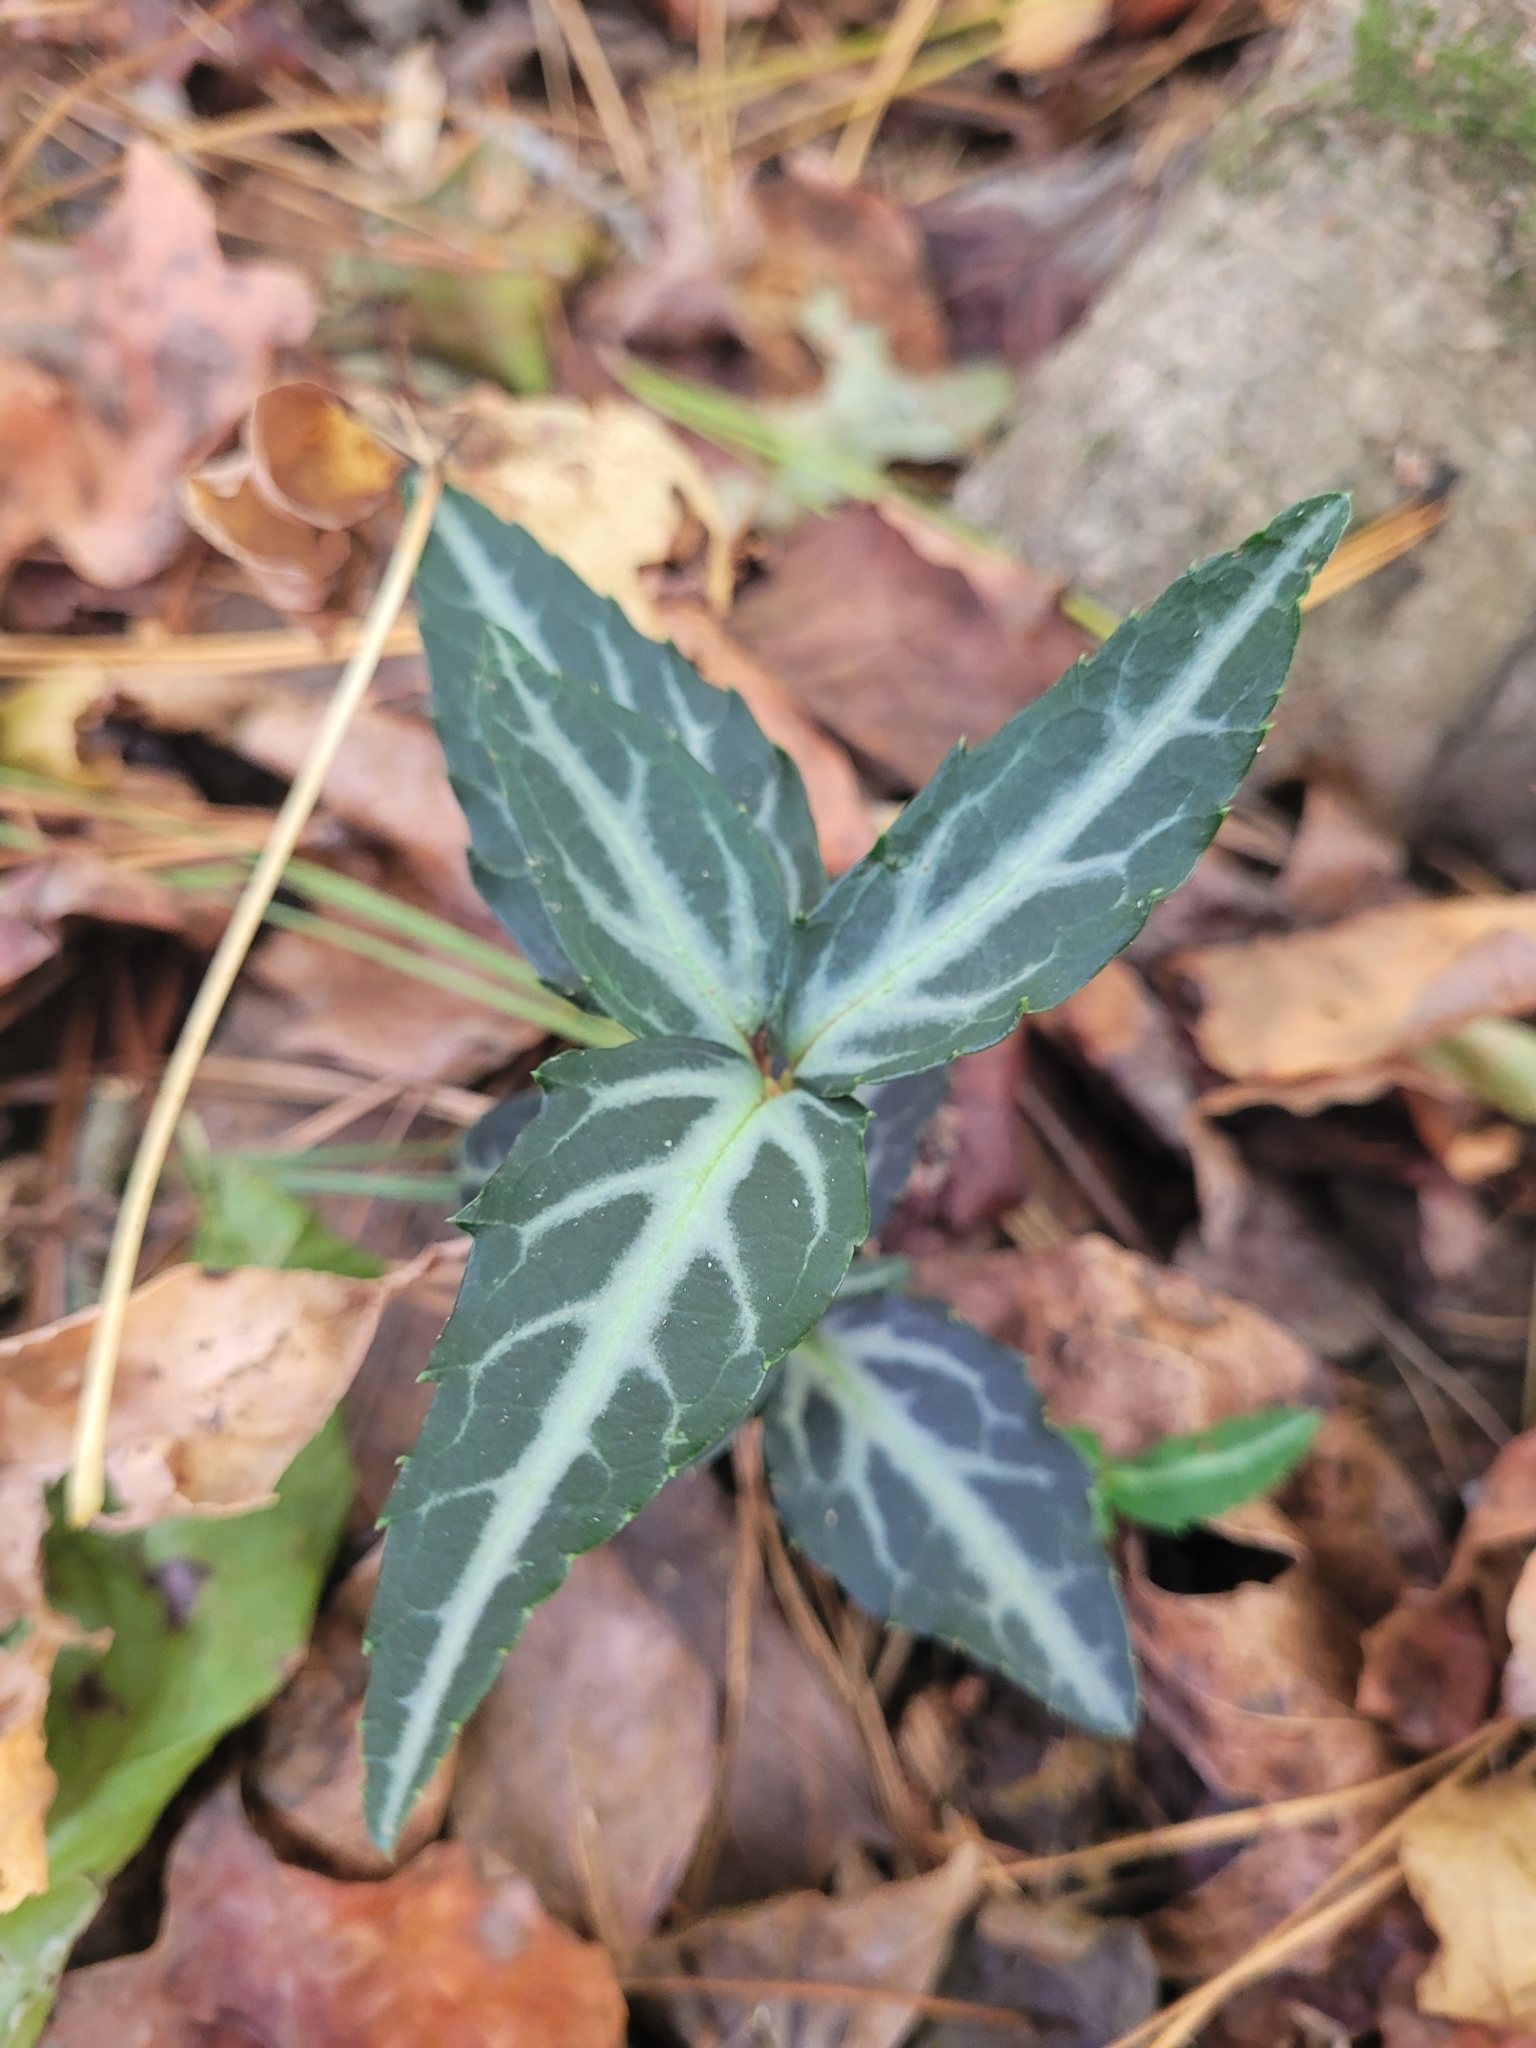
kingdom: Plantae
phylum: Tracheophyta
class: Magnoliopsida
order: Ericales
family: Ericaceae
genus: Chimaphila
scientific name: Chimaphila maculata
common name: Spotted pipsissewa
